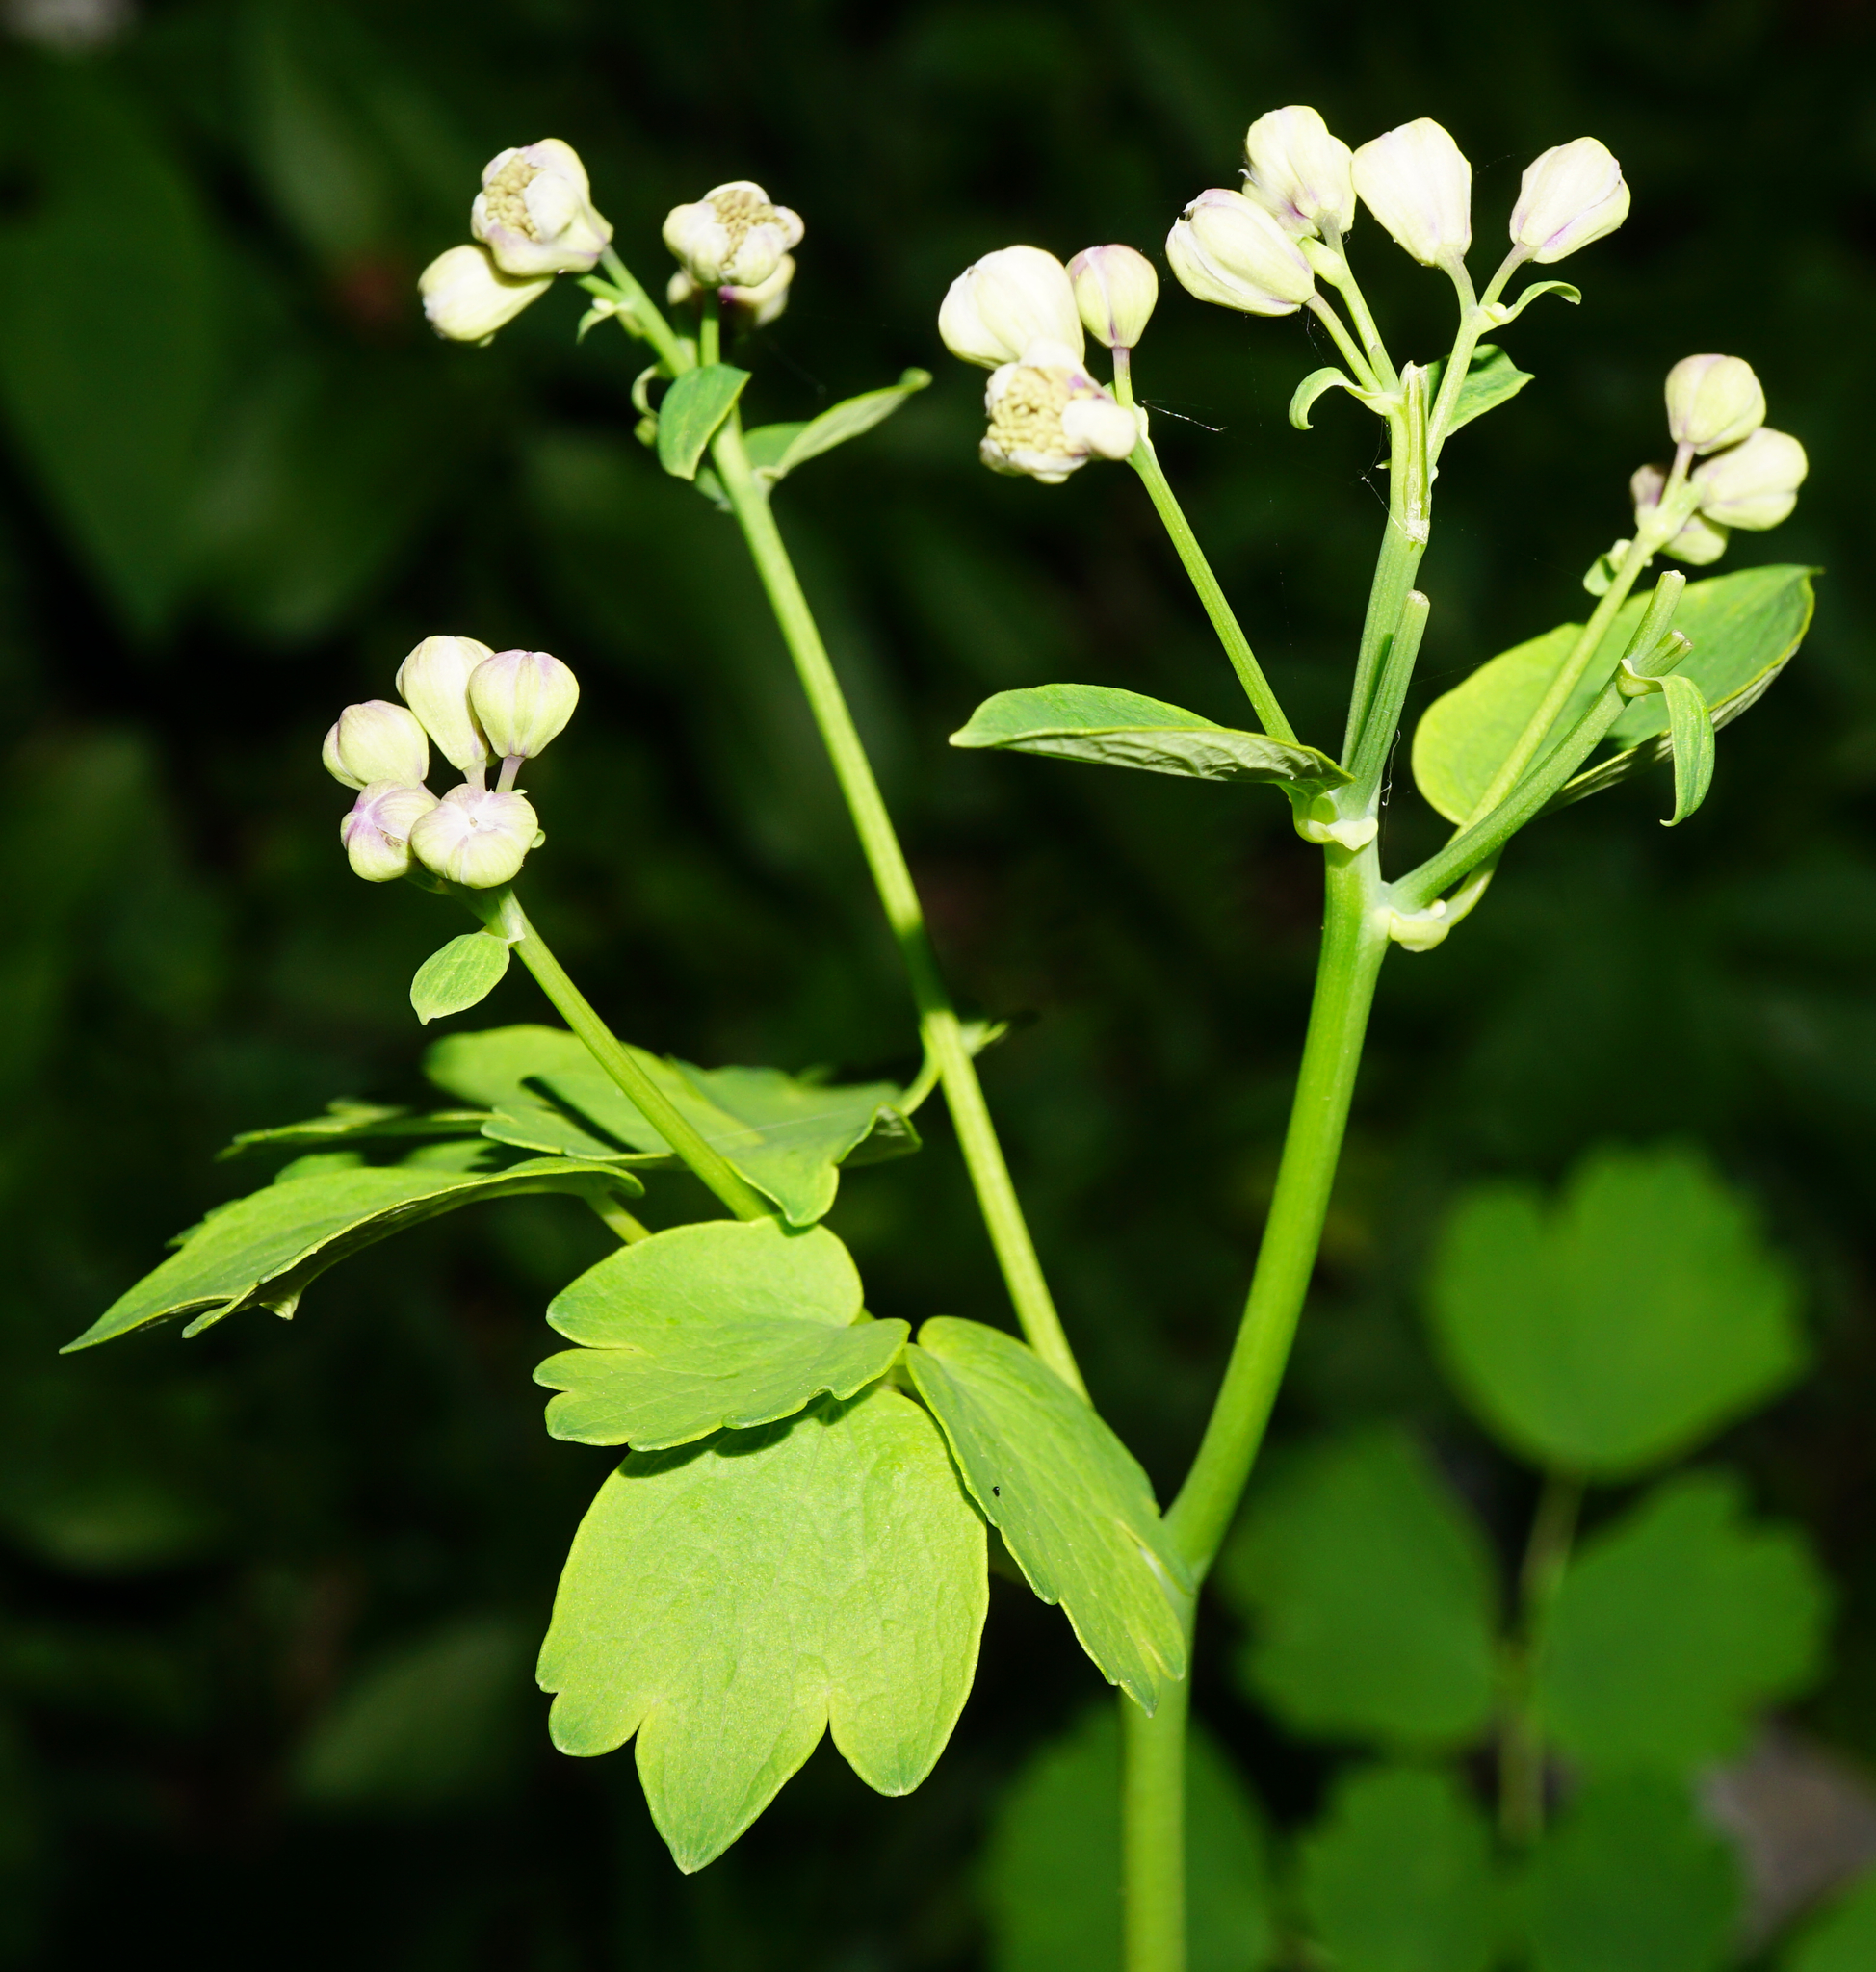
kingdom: Plantae
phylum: Tracheophyta
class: Magnoliopsida
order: Ranunculales
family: Ranunculaceae
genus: Thalictrum
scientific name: Thalictrum aquilegiifolium
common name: French meadow-rue
